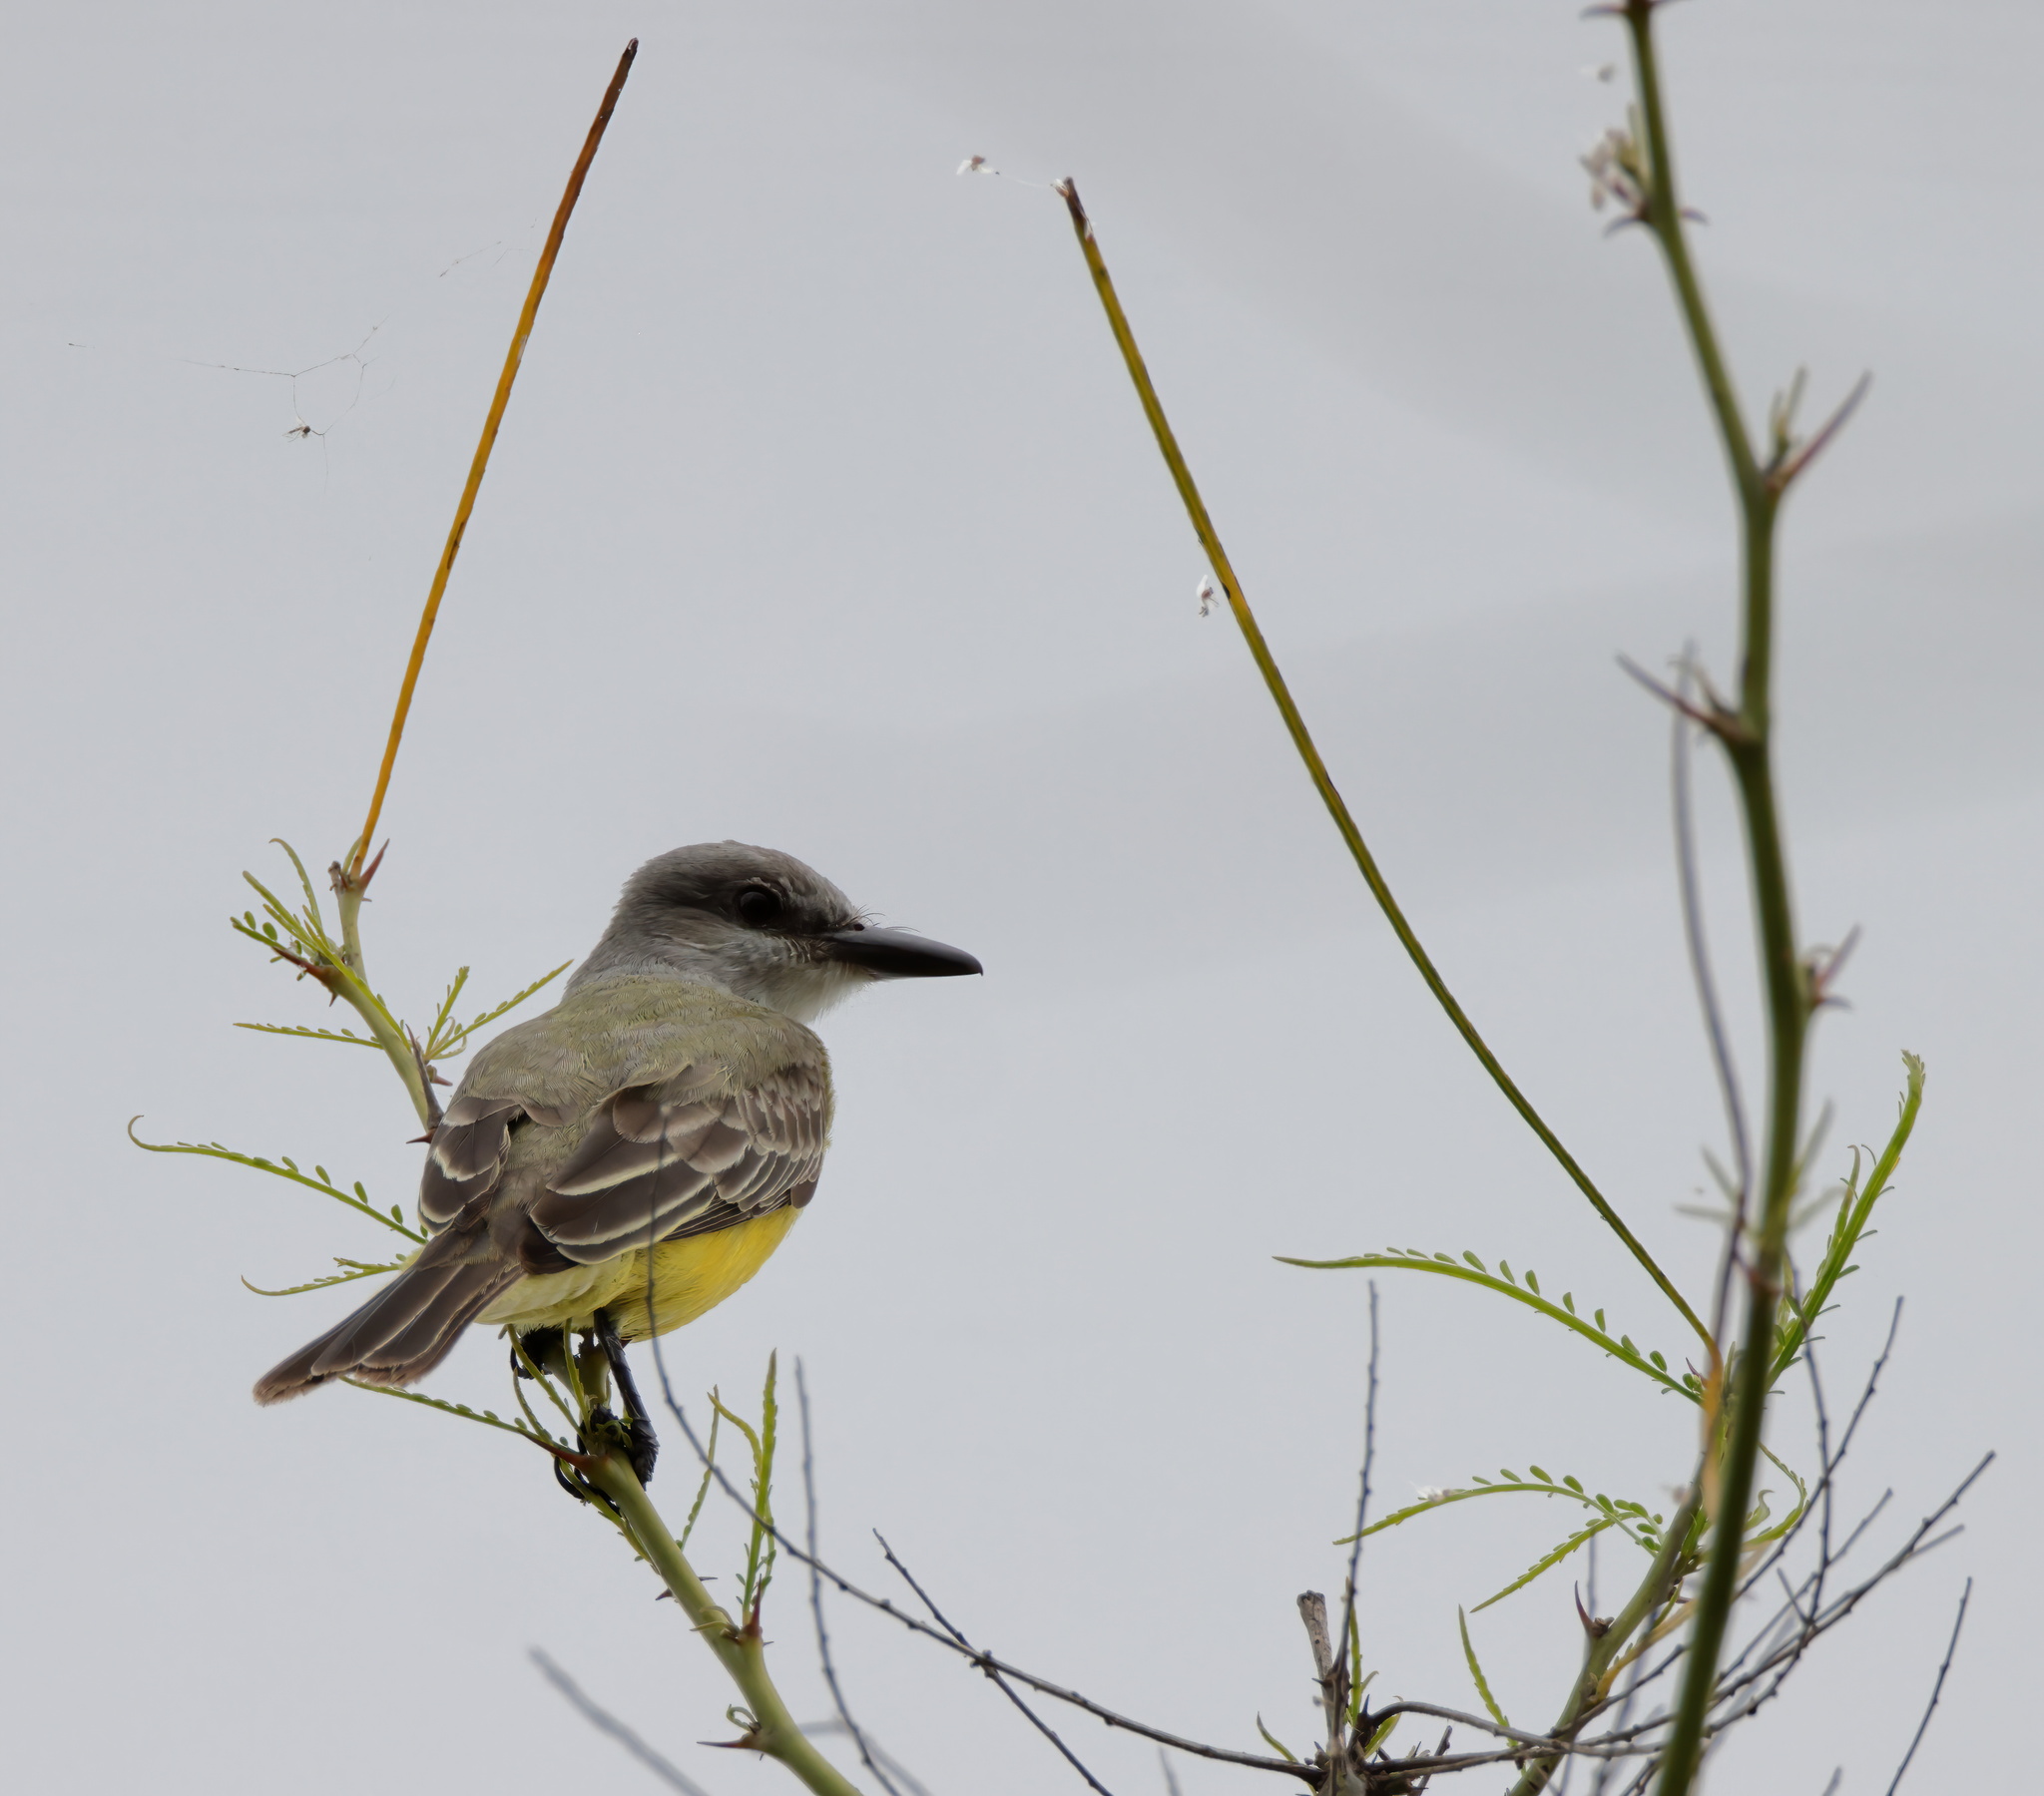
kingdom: Animalia
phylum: Chordata
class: Aves
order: Passeriformes
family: Tyrannidae
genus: Tyrannus
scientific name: Tyrannus melancholicus
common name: Tropical kingbird
